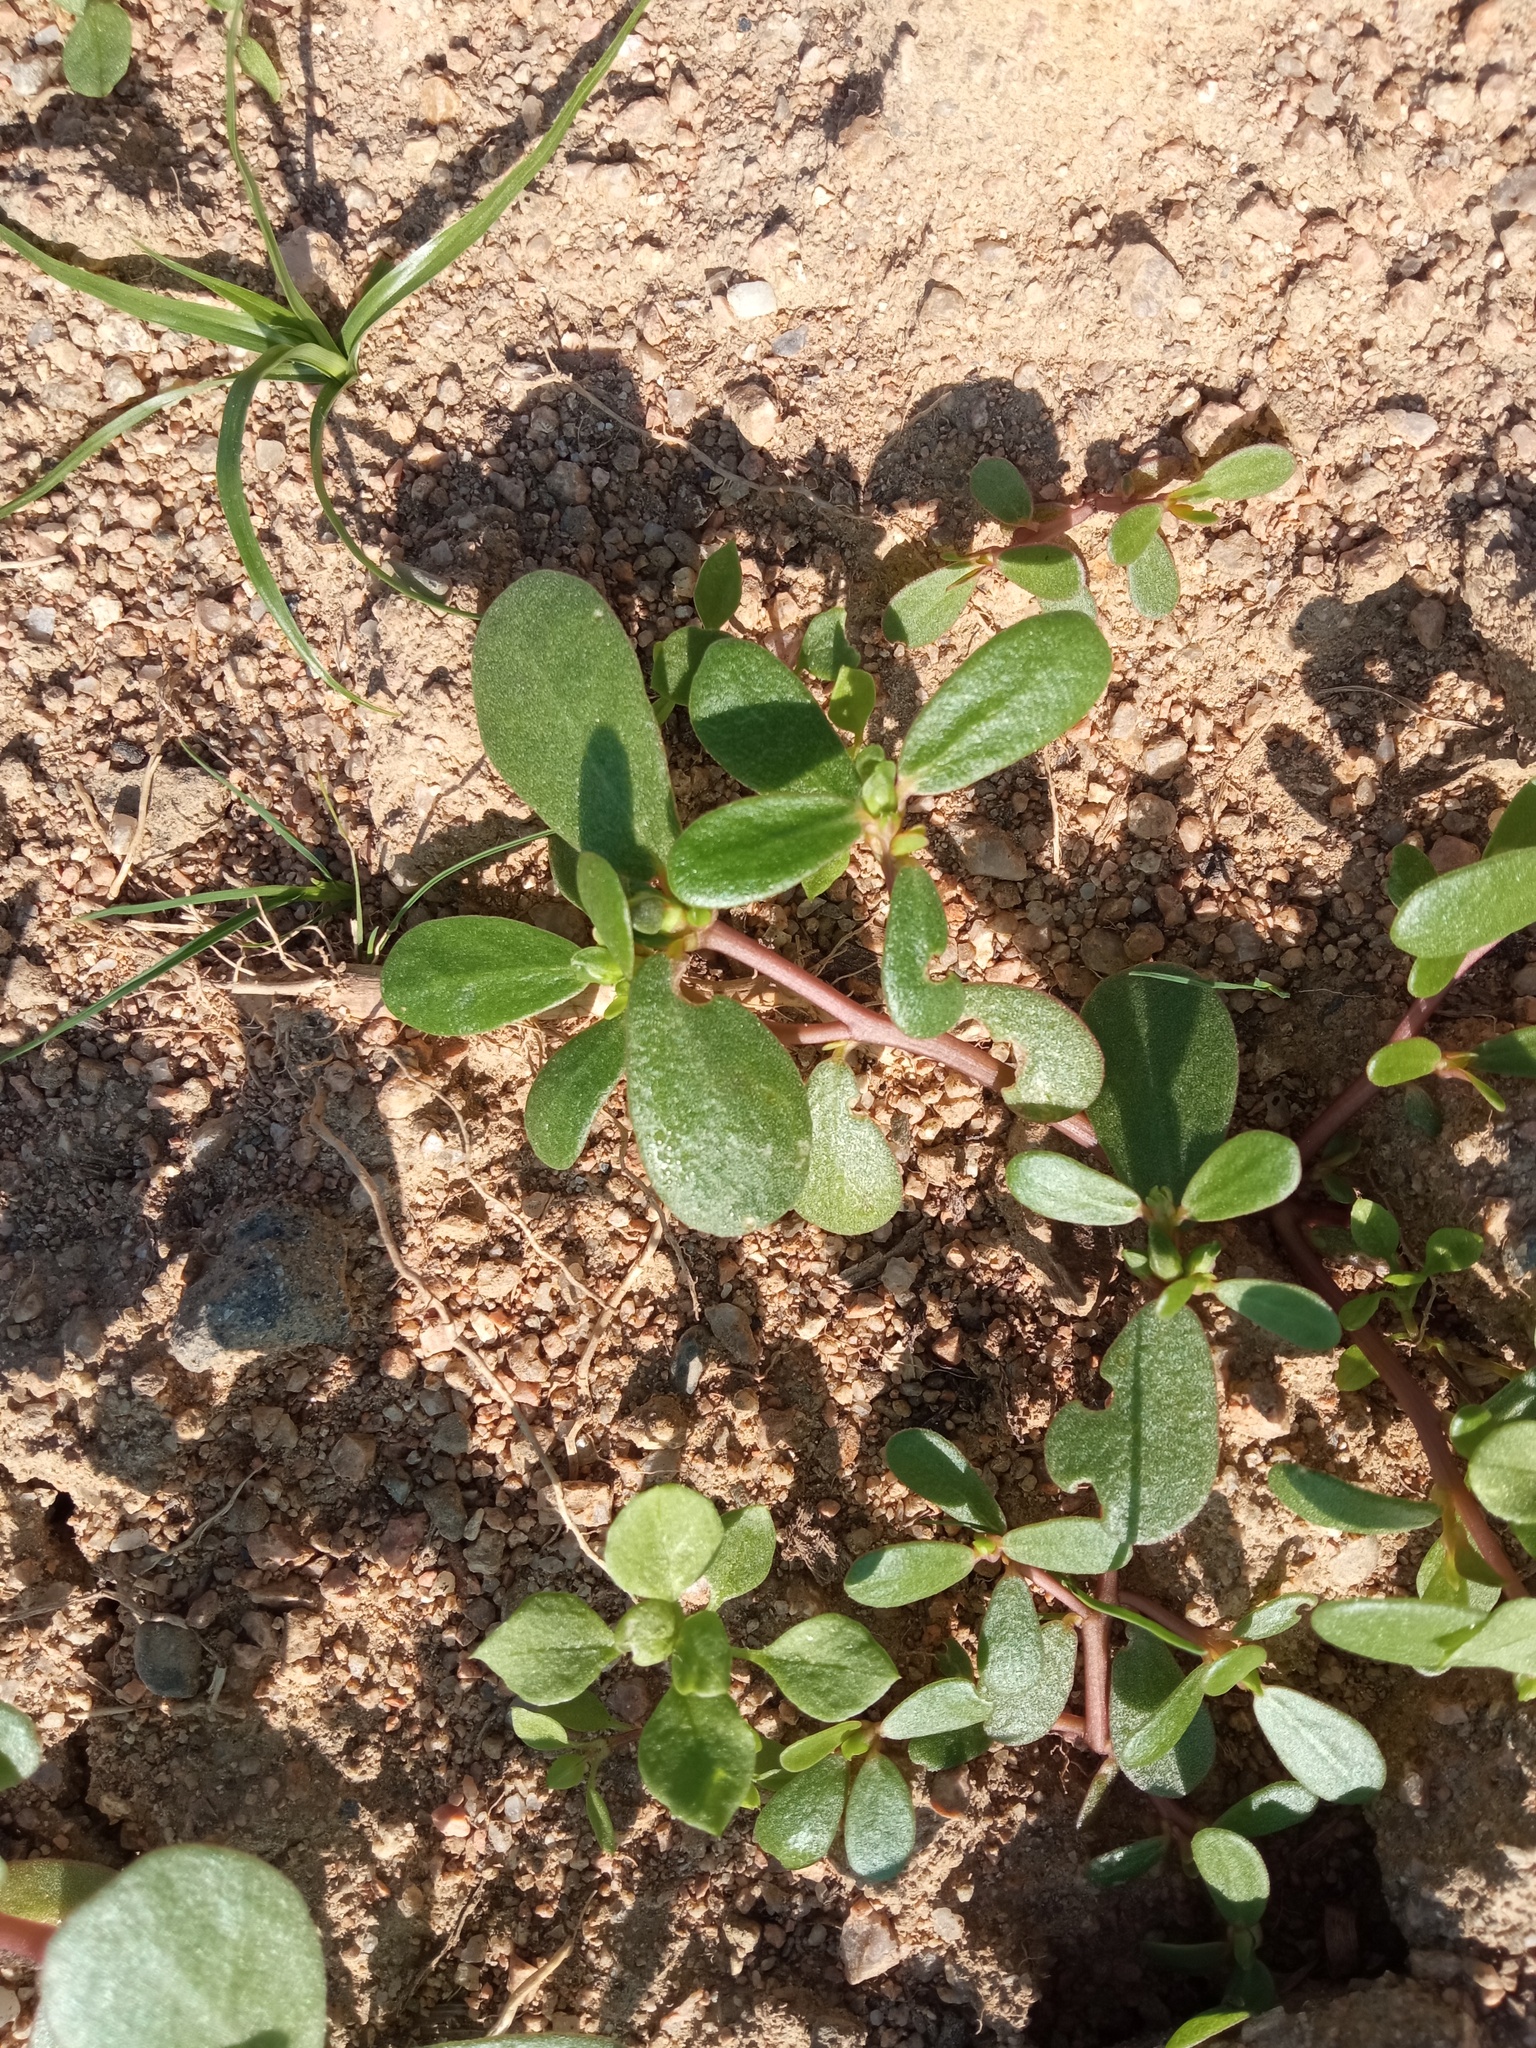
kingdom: Plantae
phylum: Tracheophyta
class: Magnoliopsida
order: Caryophyllales
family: Portulacaceae
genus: Portulaca
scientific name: Portulaca oleracea
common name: Common purslane
